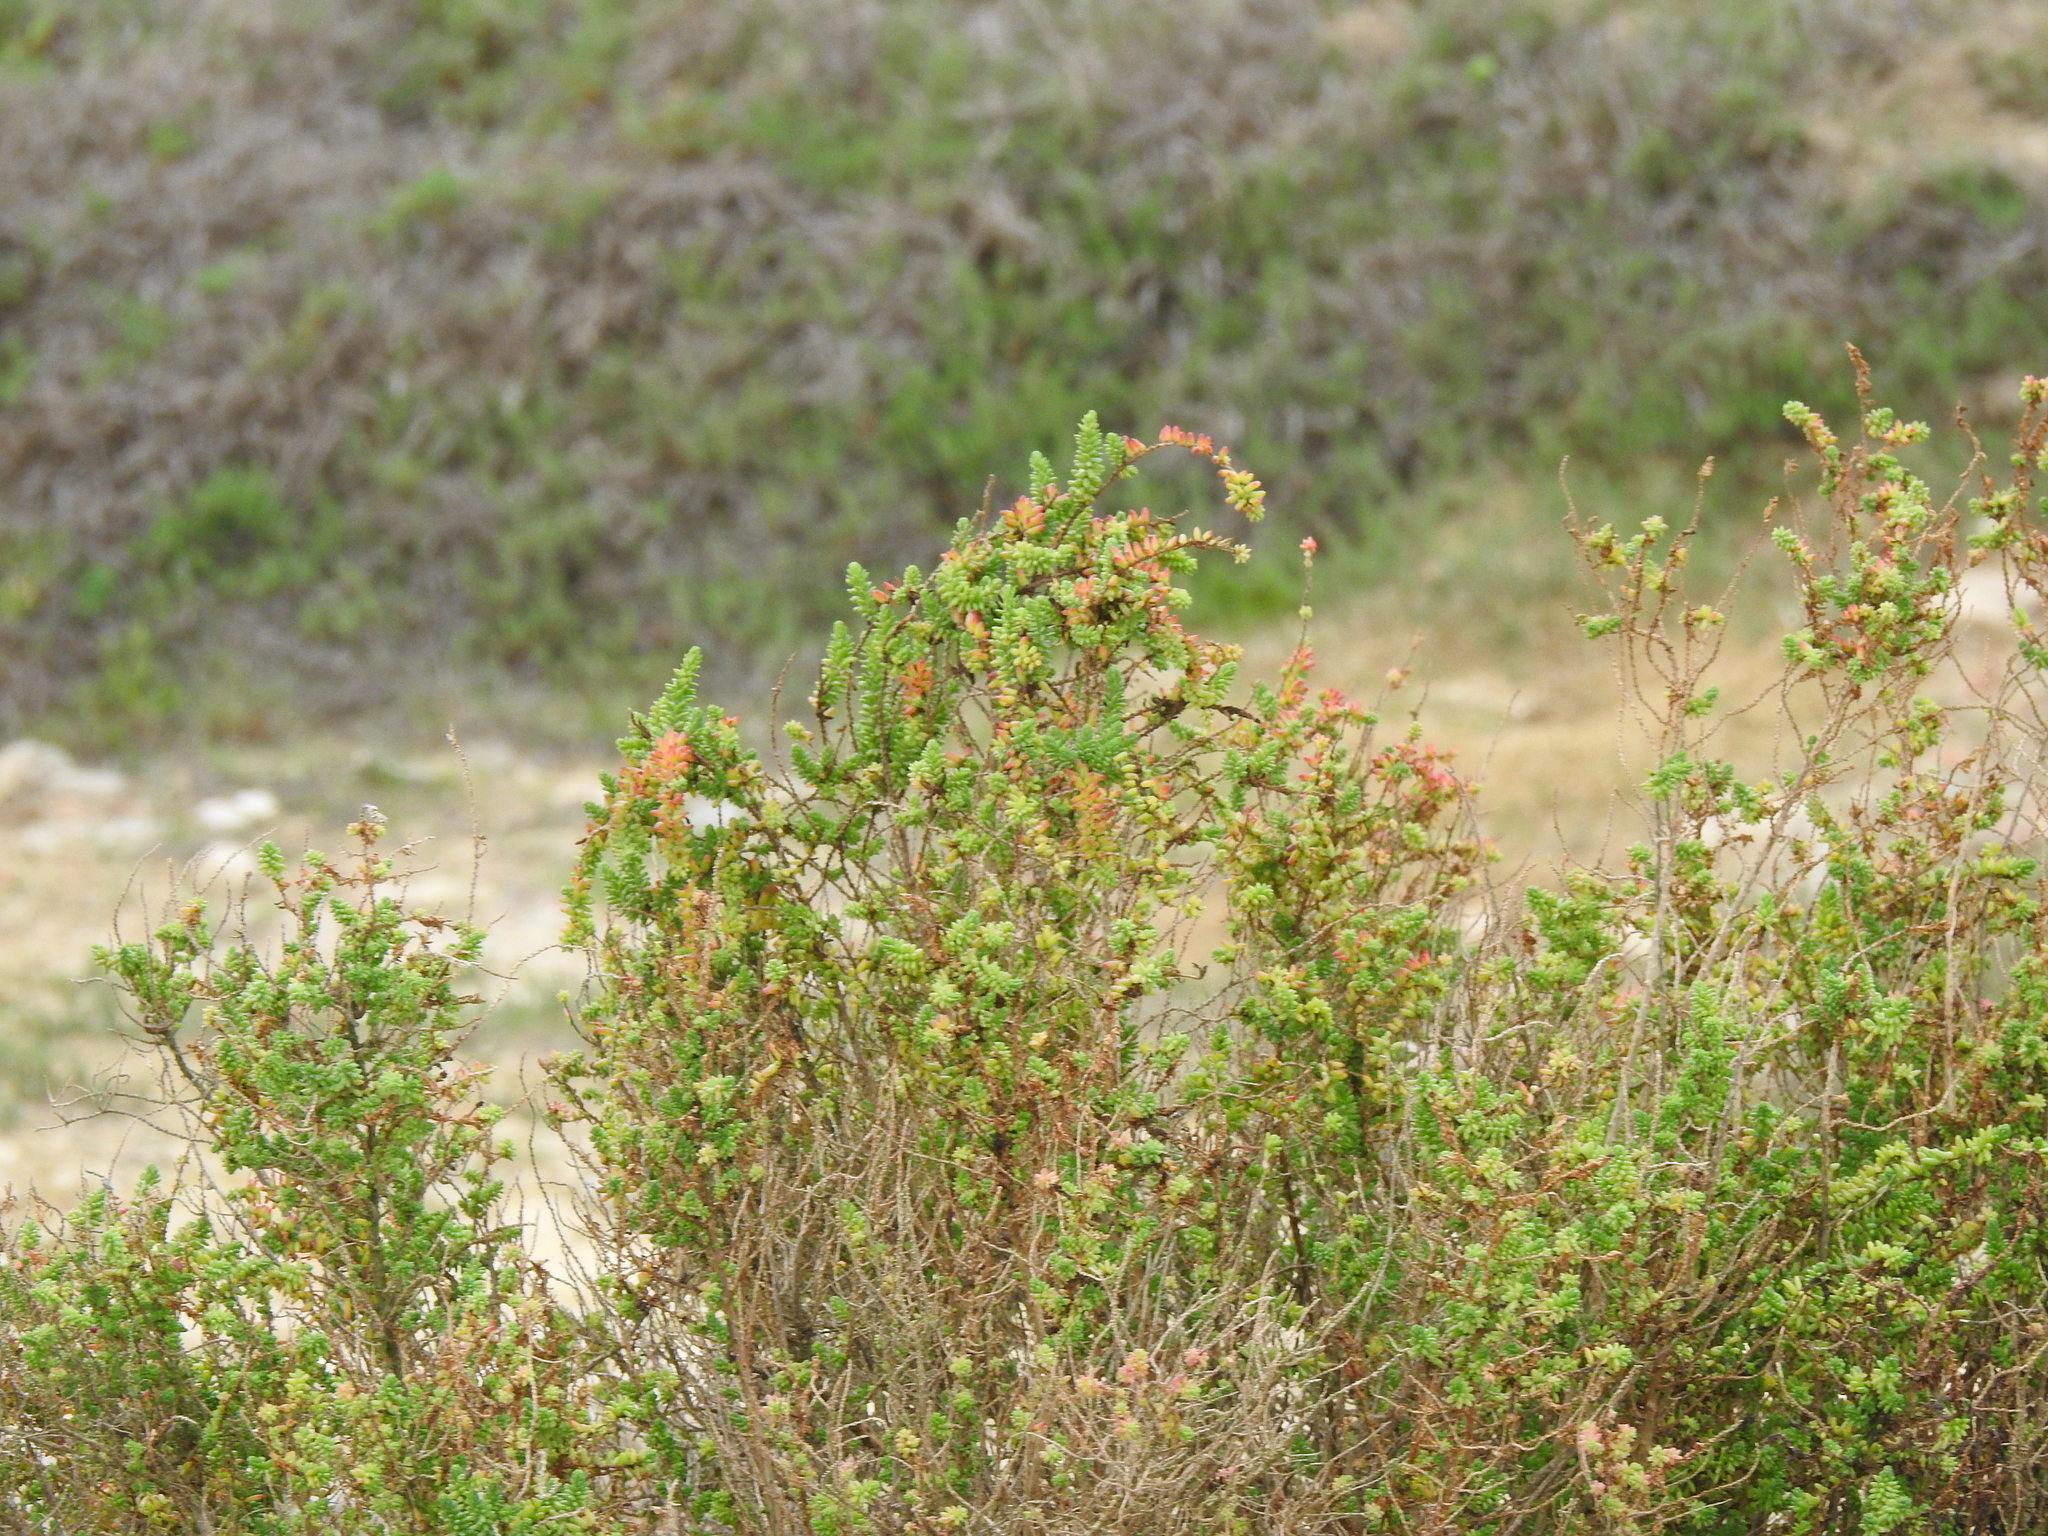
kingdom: Plantae
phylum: Tracheophyta
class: Magnoliopsida
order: Caryophyllales
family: Amaranthaceae
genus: Suaeda
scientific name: Suaeda vera
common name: Shrubby sea-blite
